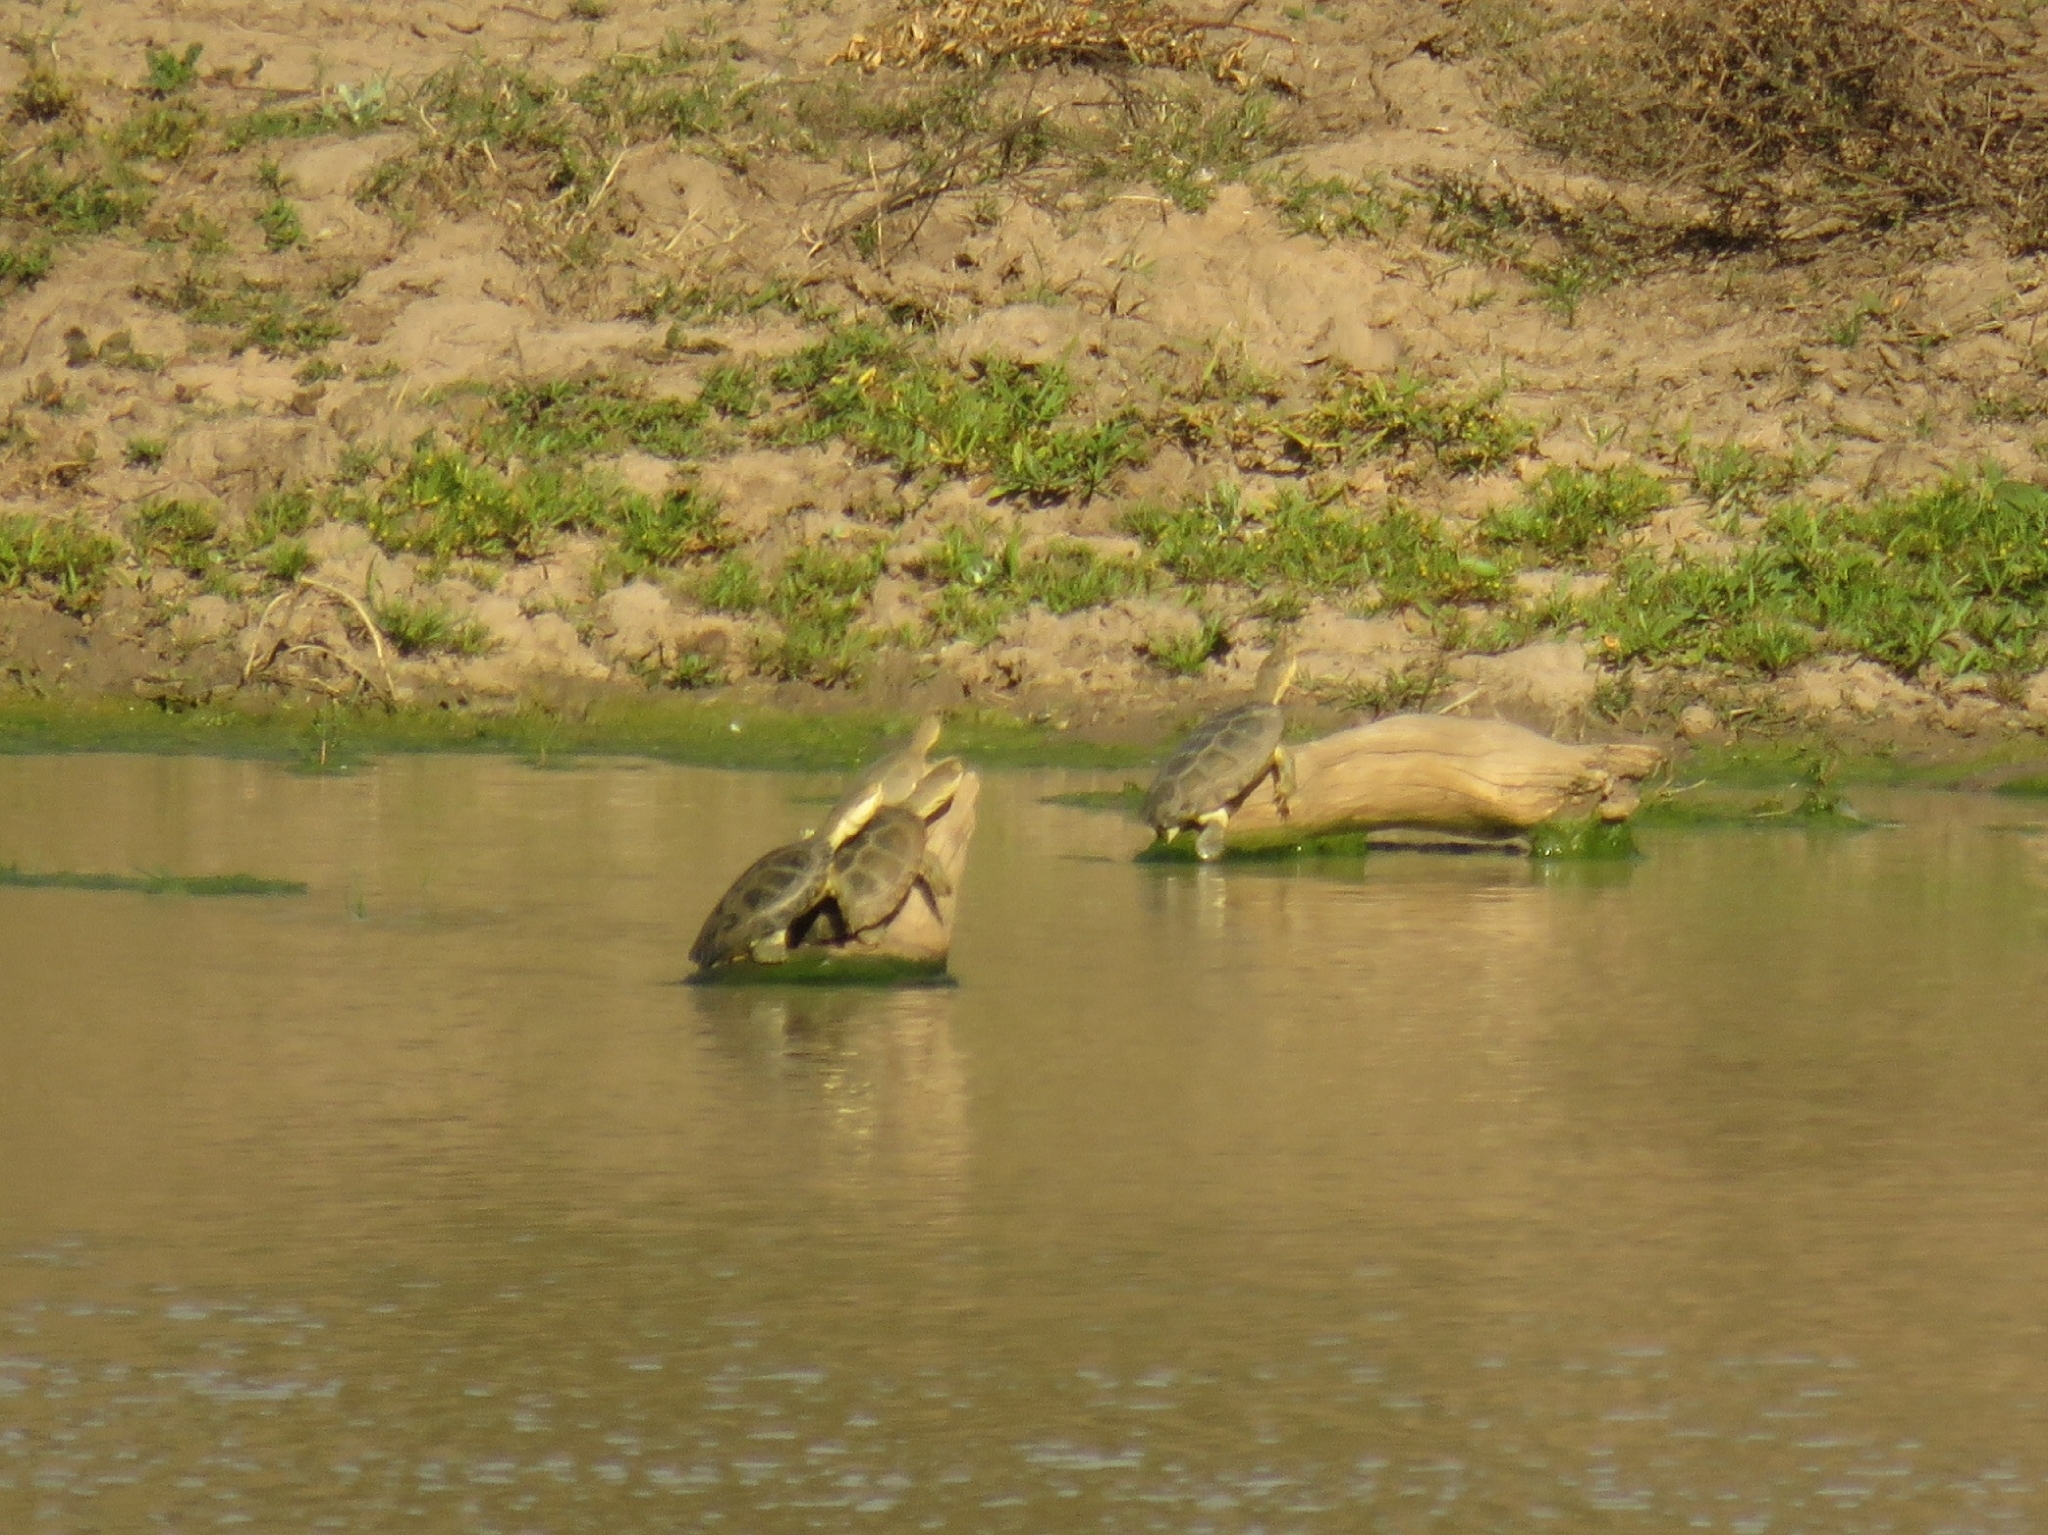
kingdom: Animalia
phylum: Chordata
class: Testudines
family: Pelomedusidae
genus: Pelomedusa
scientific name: Pelomedusa galeata
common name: South african helmeted terrapin
